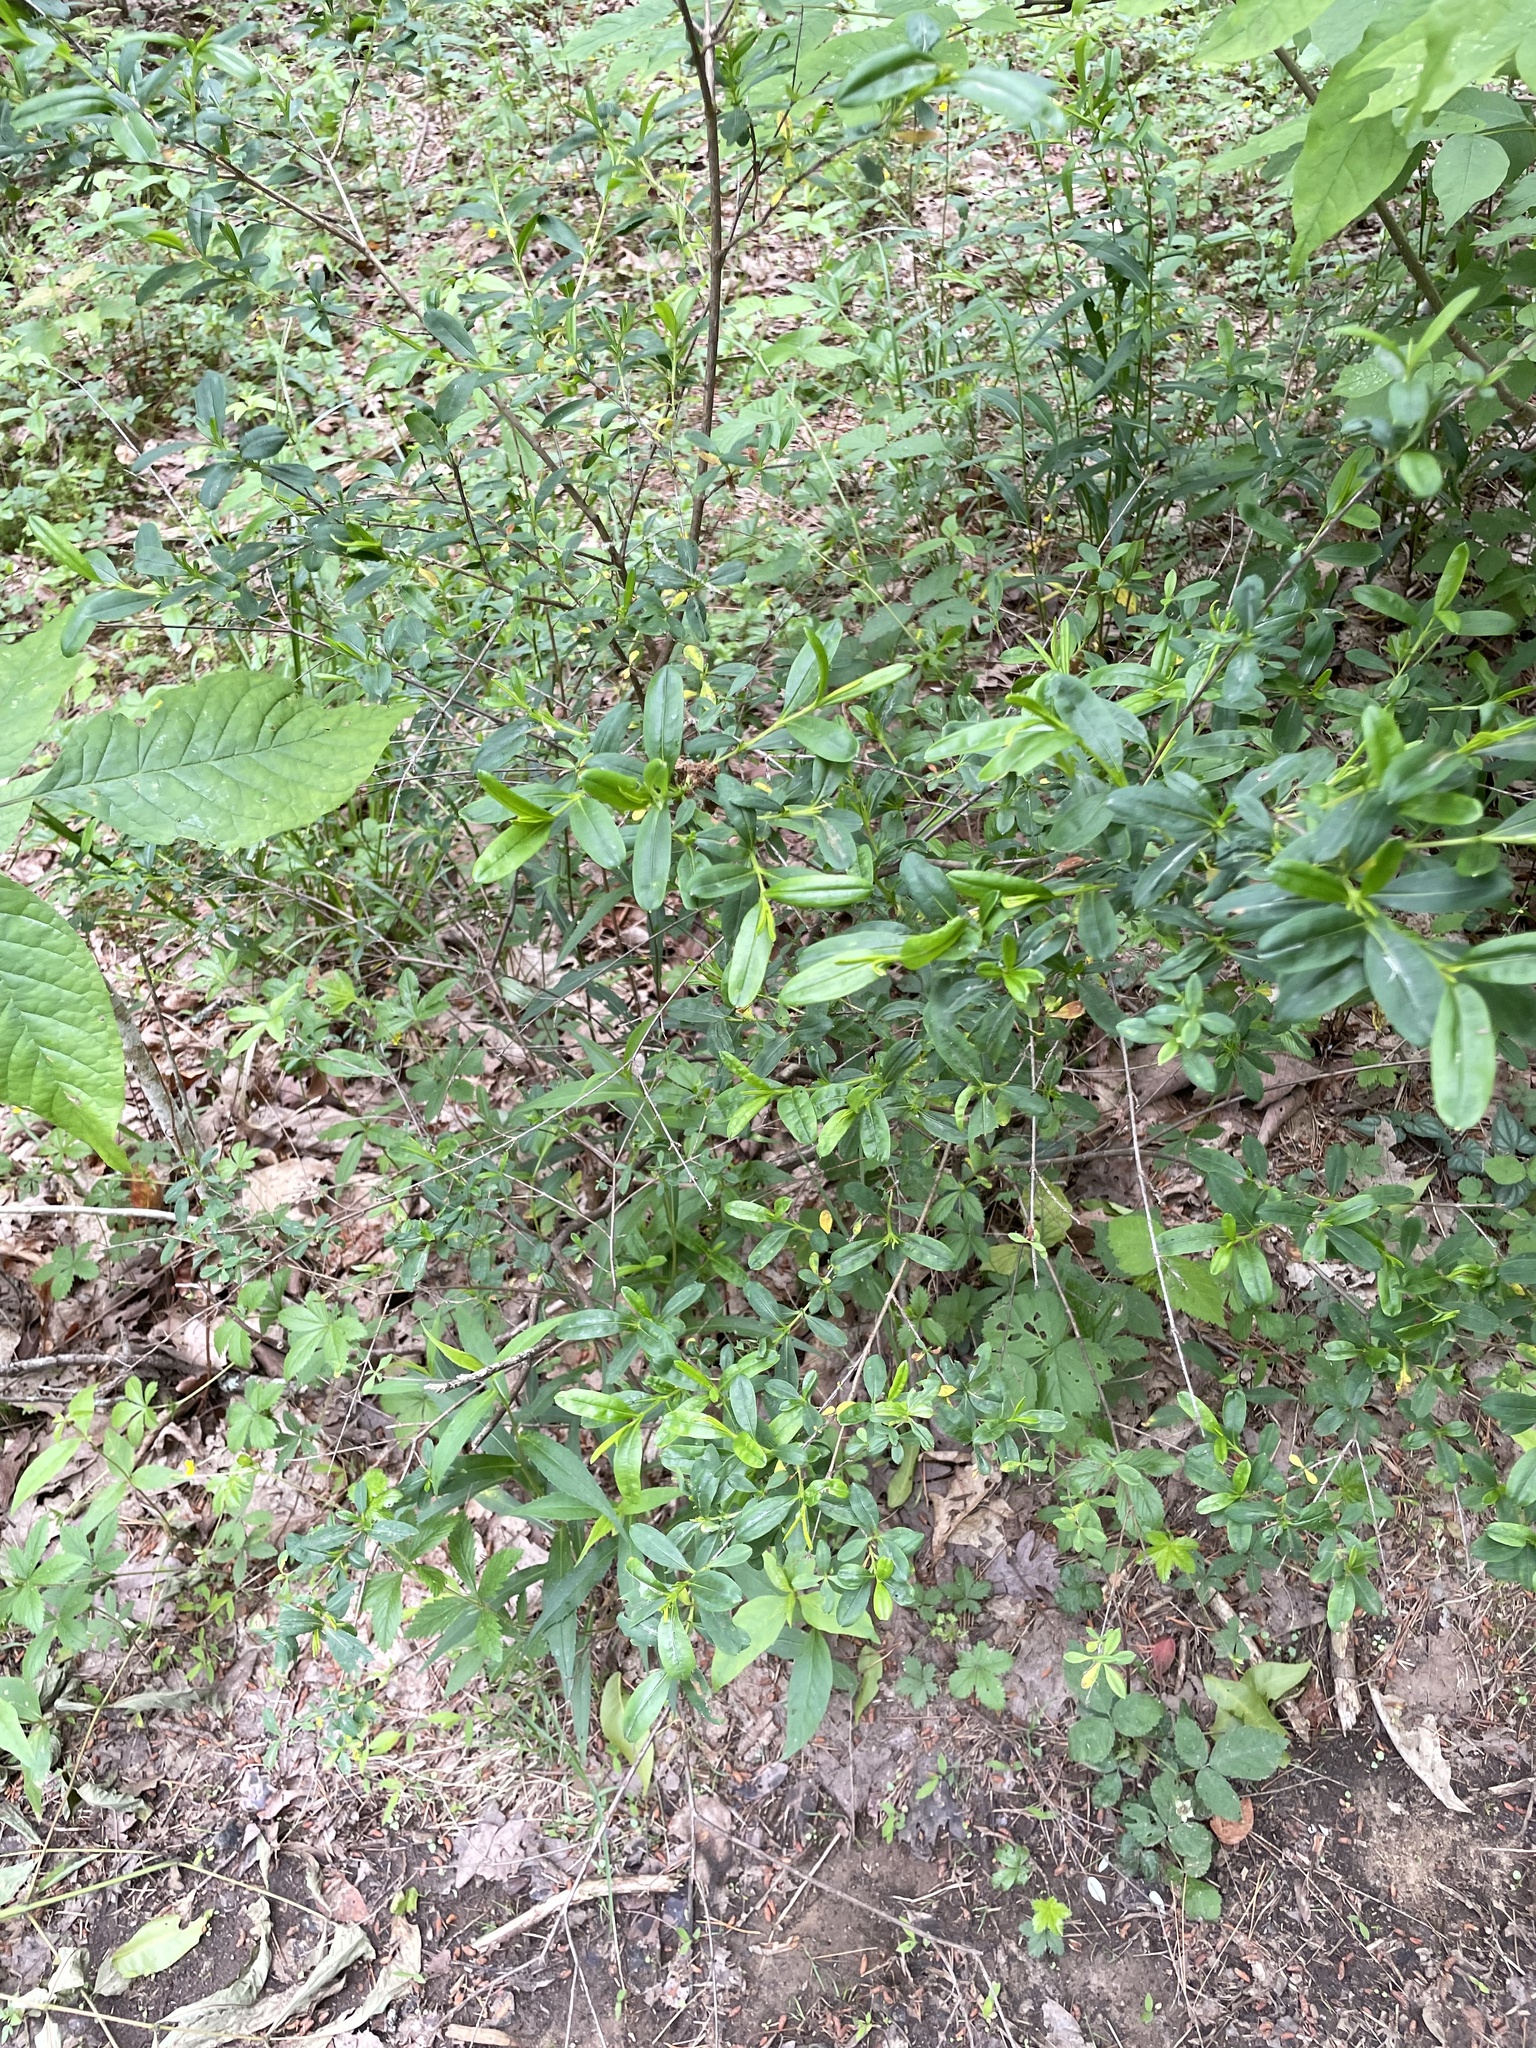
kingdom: Plantae
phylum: Tracheophyta
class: Magnoliopsida
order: Malpighiales
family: Hypericaceae
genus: Hypericum
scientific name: Hypericum prolificum
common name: Shrubby st. john's-wort
